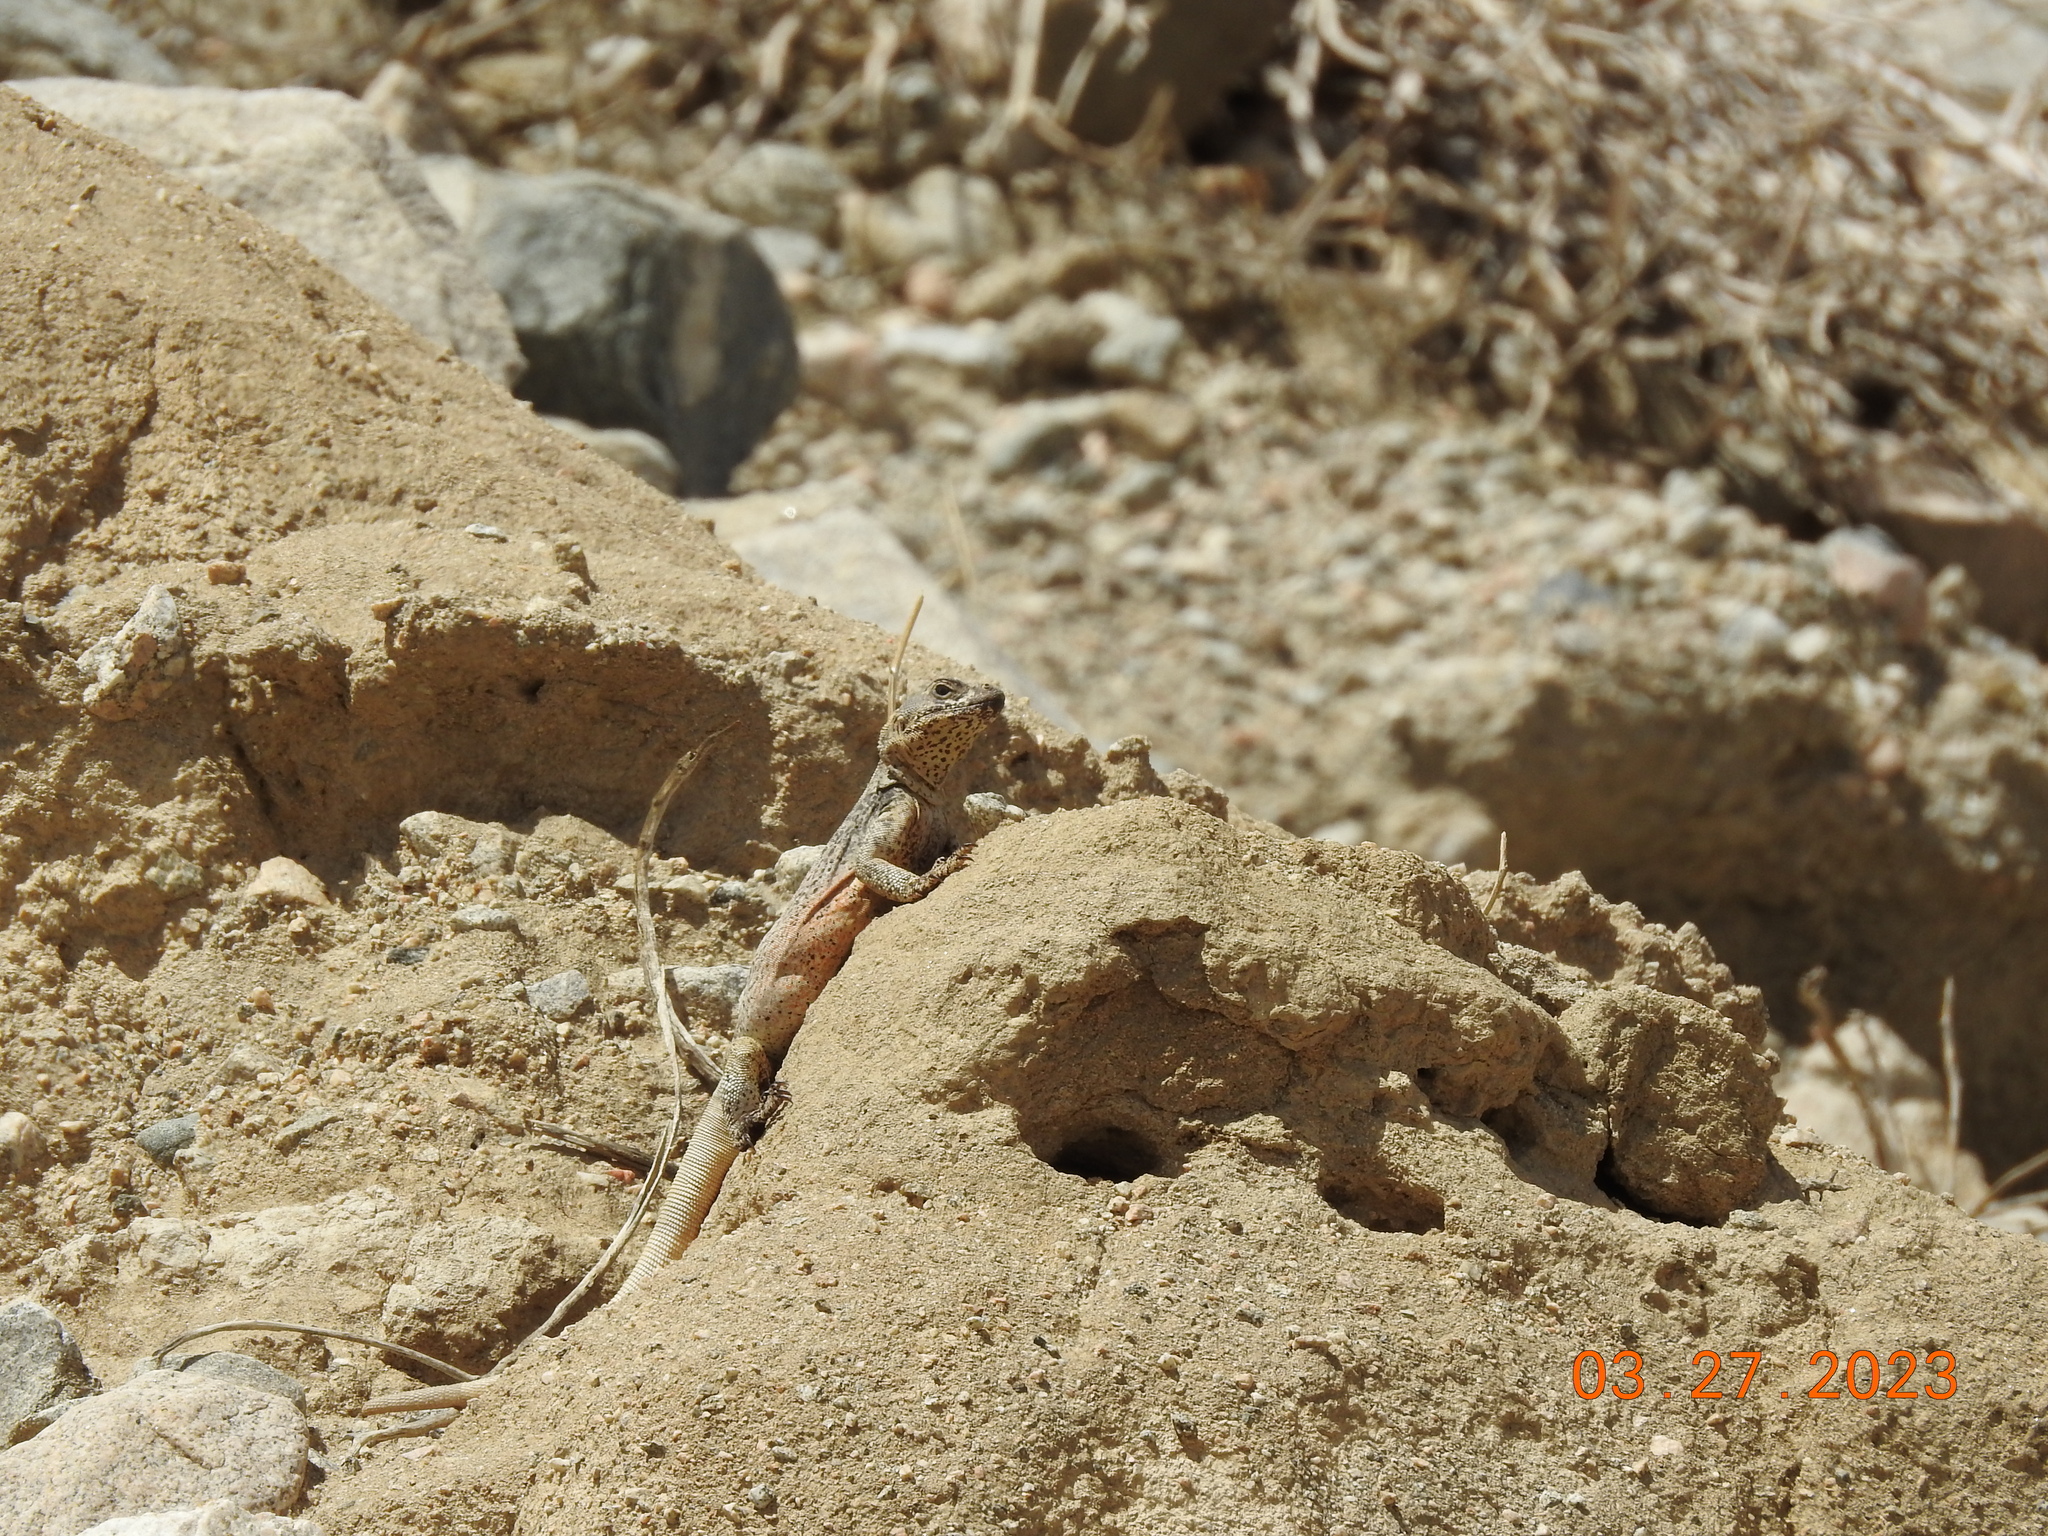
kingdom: Animalia
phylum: Chordata
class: Squamata
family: Iguanidae
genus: Sauromalus
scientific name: Sauromalus ater
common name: Northern chuckwalla
